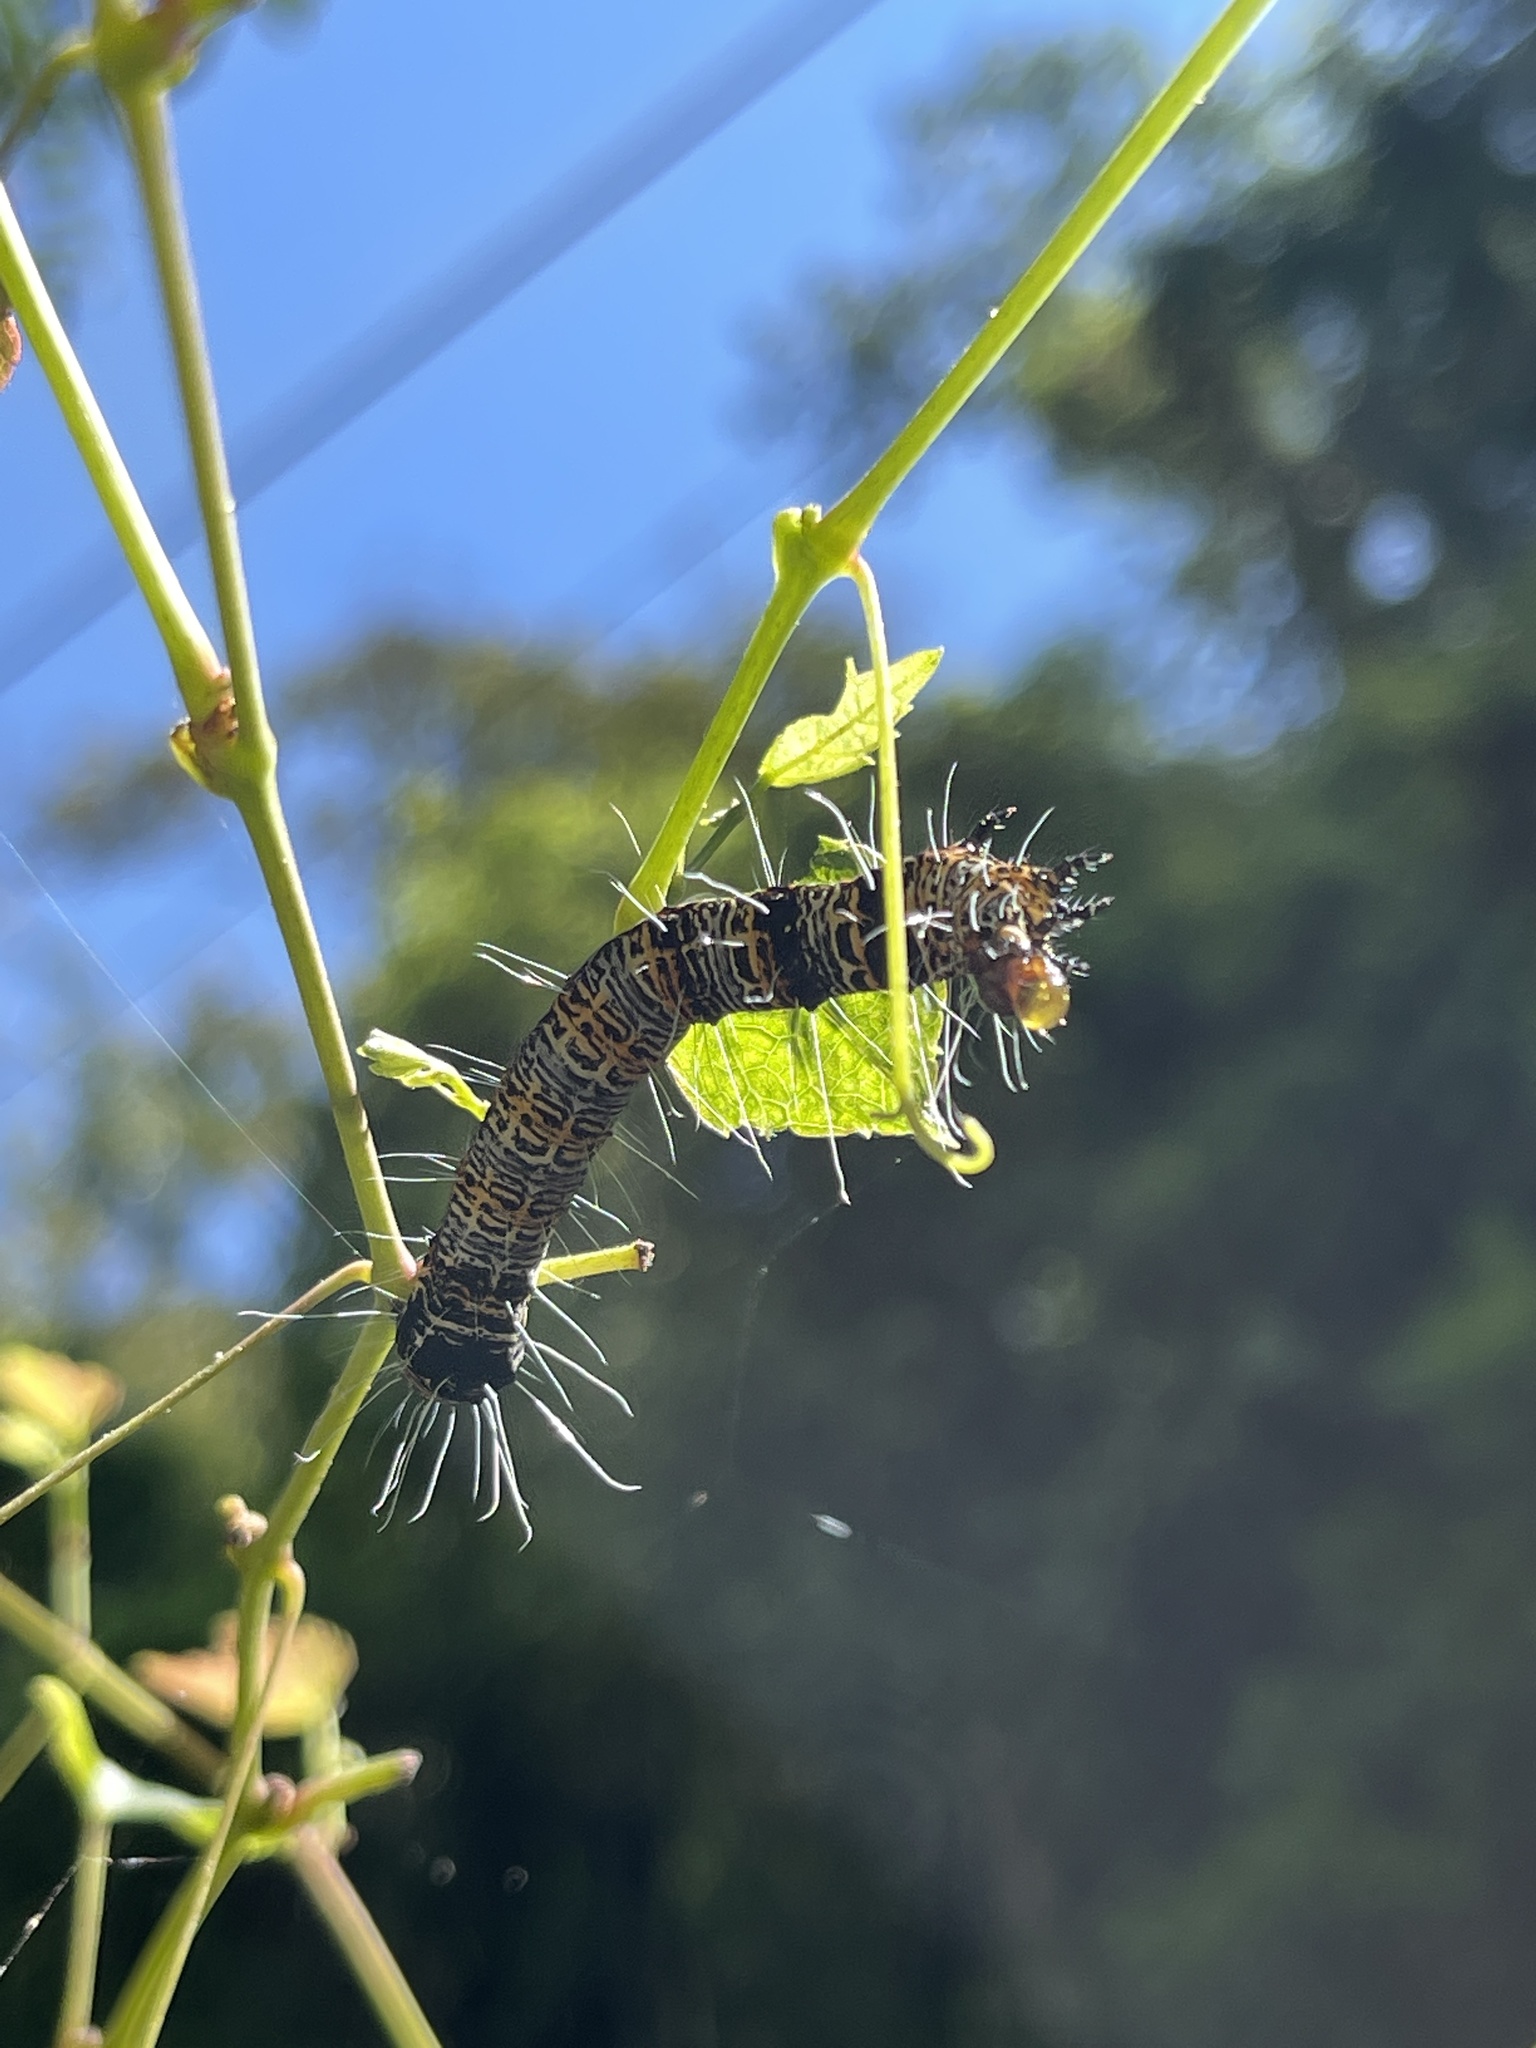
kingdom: Animalia
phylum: Arthropoda
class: Insecta
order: Lepidoptera
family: Geometridae
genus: Milionia
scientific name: Milionia basalis
